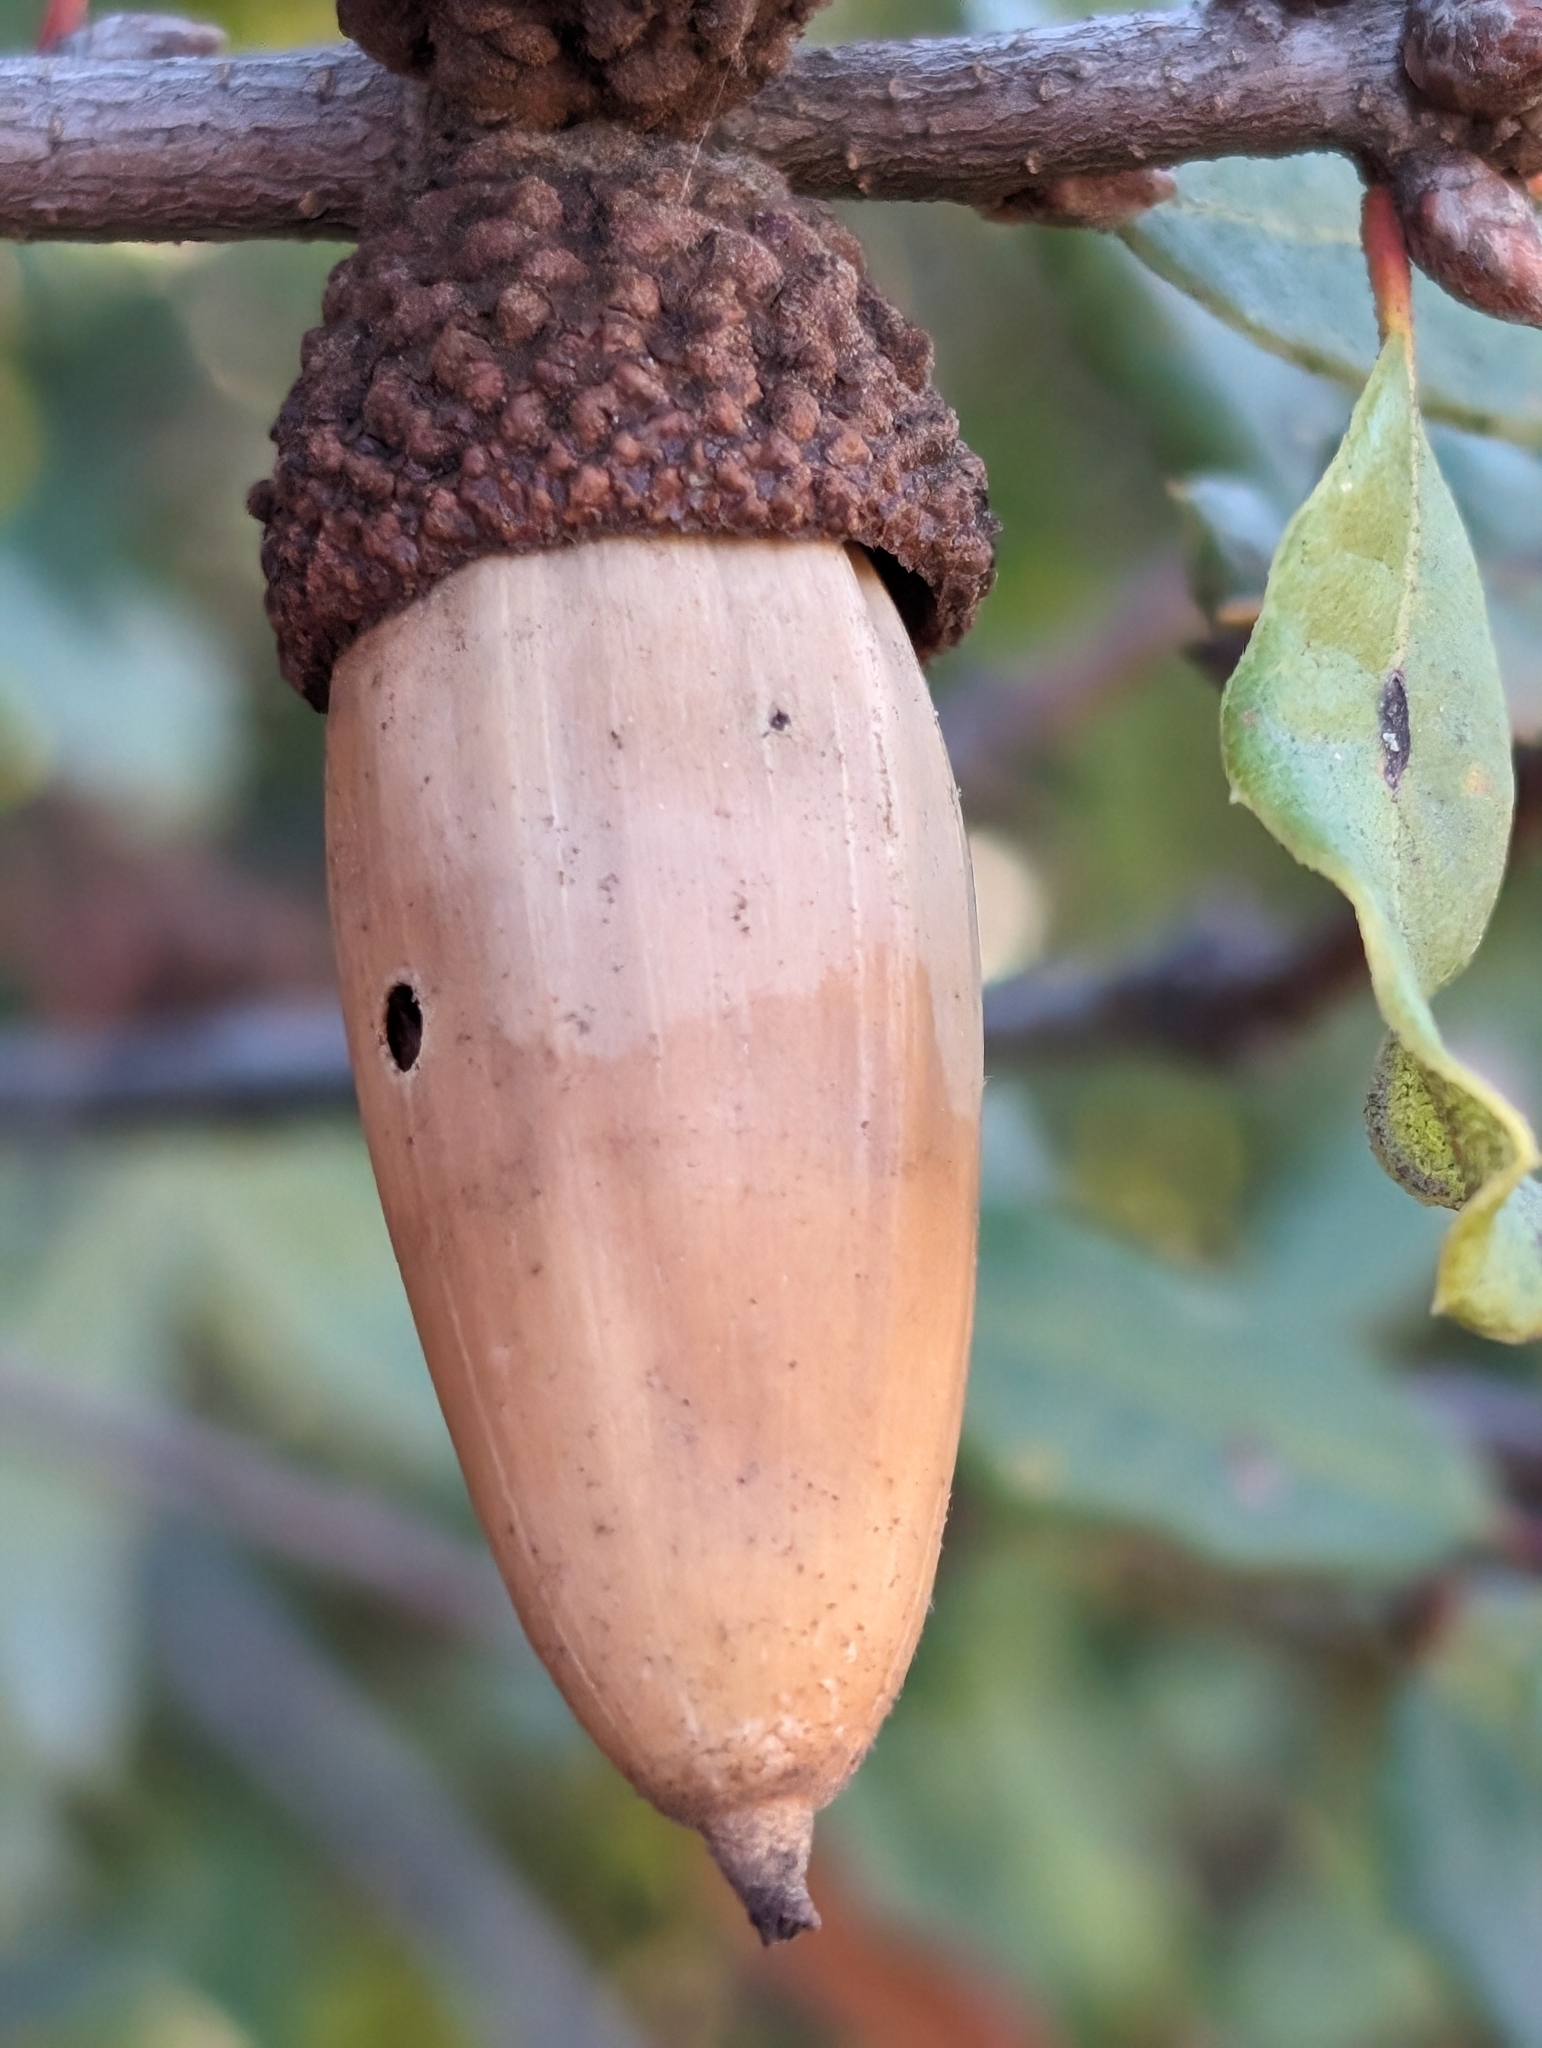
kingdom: Plantae
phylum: Tracheophyta
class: Magnoliopsida
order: Fagales
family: Fagaceae
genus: Quercus
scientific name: Quercus berberidifolia
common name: California scrub oak
